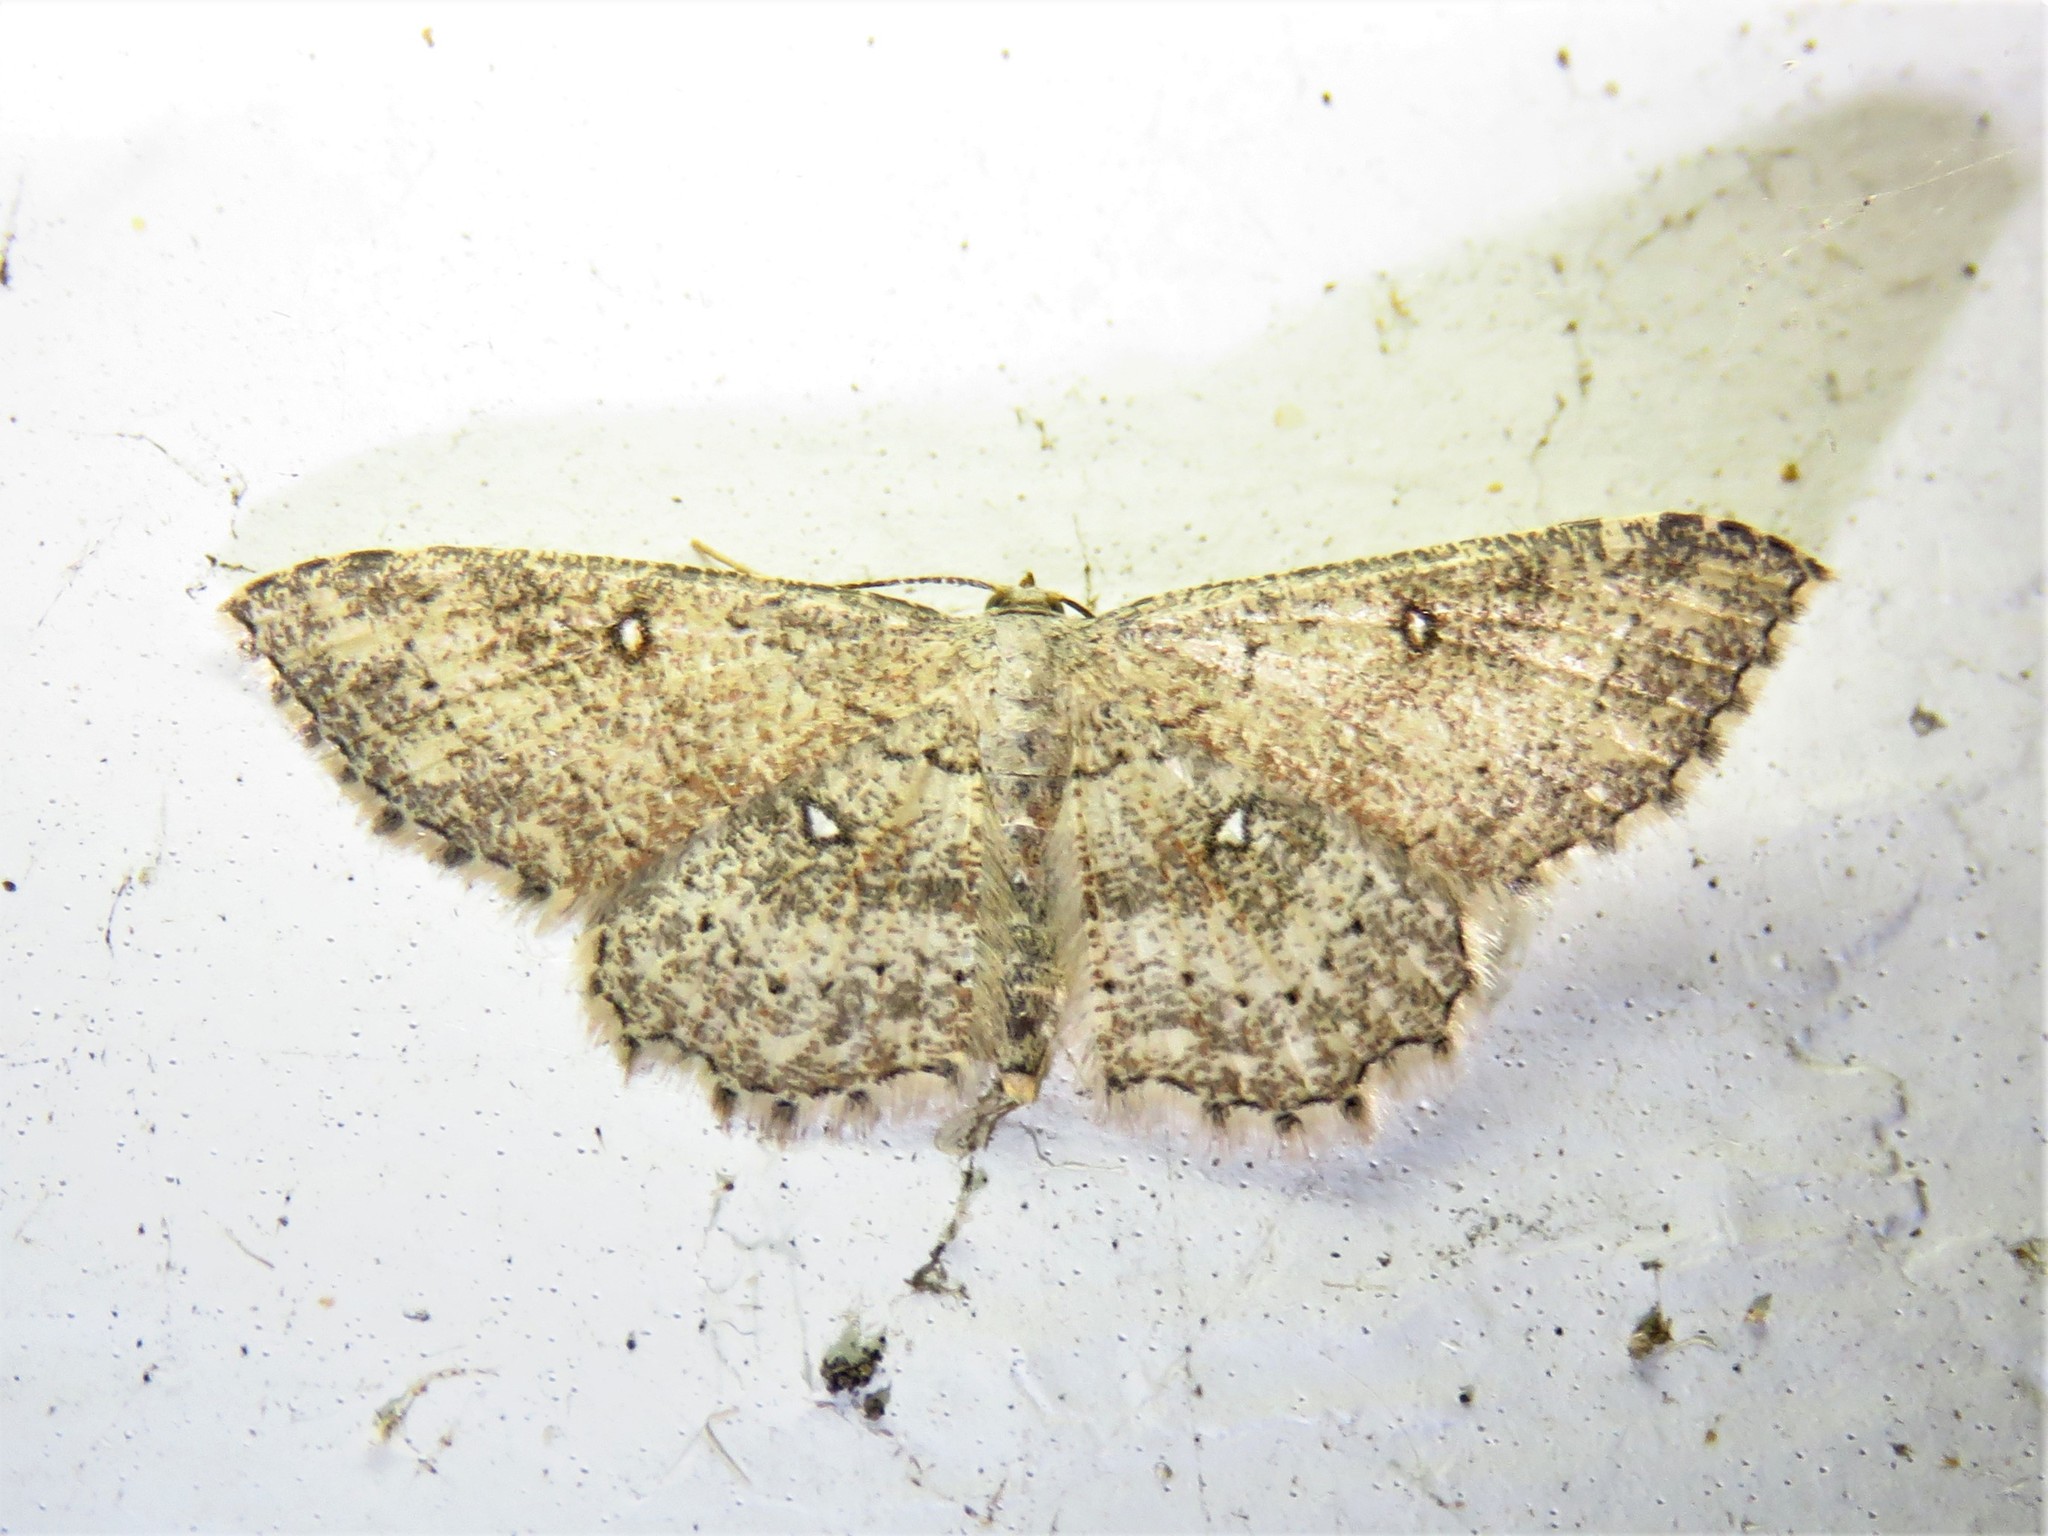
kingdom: Animalia
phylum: Arthropoda
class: Insecta
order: Lepidoptera
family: Geometridae
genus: Cyclophora
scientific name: Cyclophora nanaria
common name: Cankerworm
